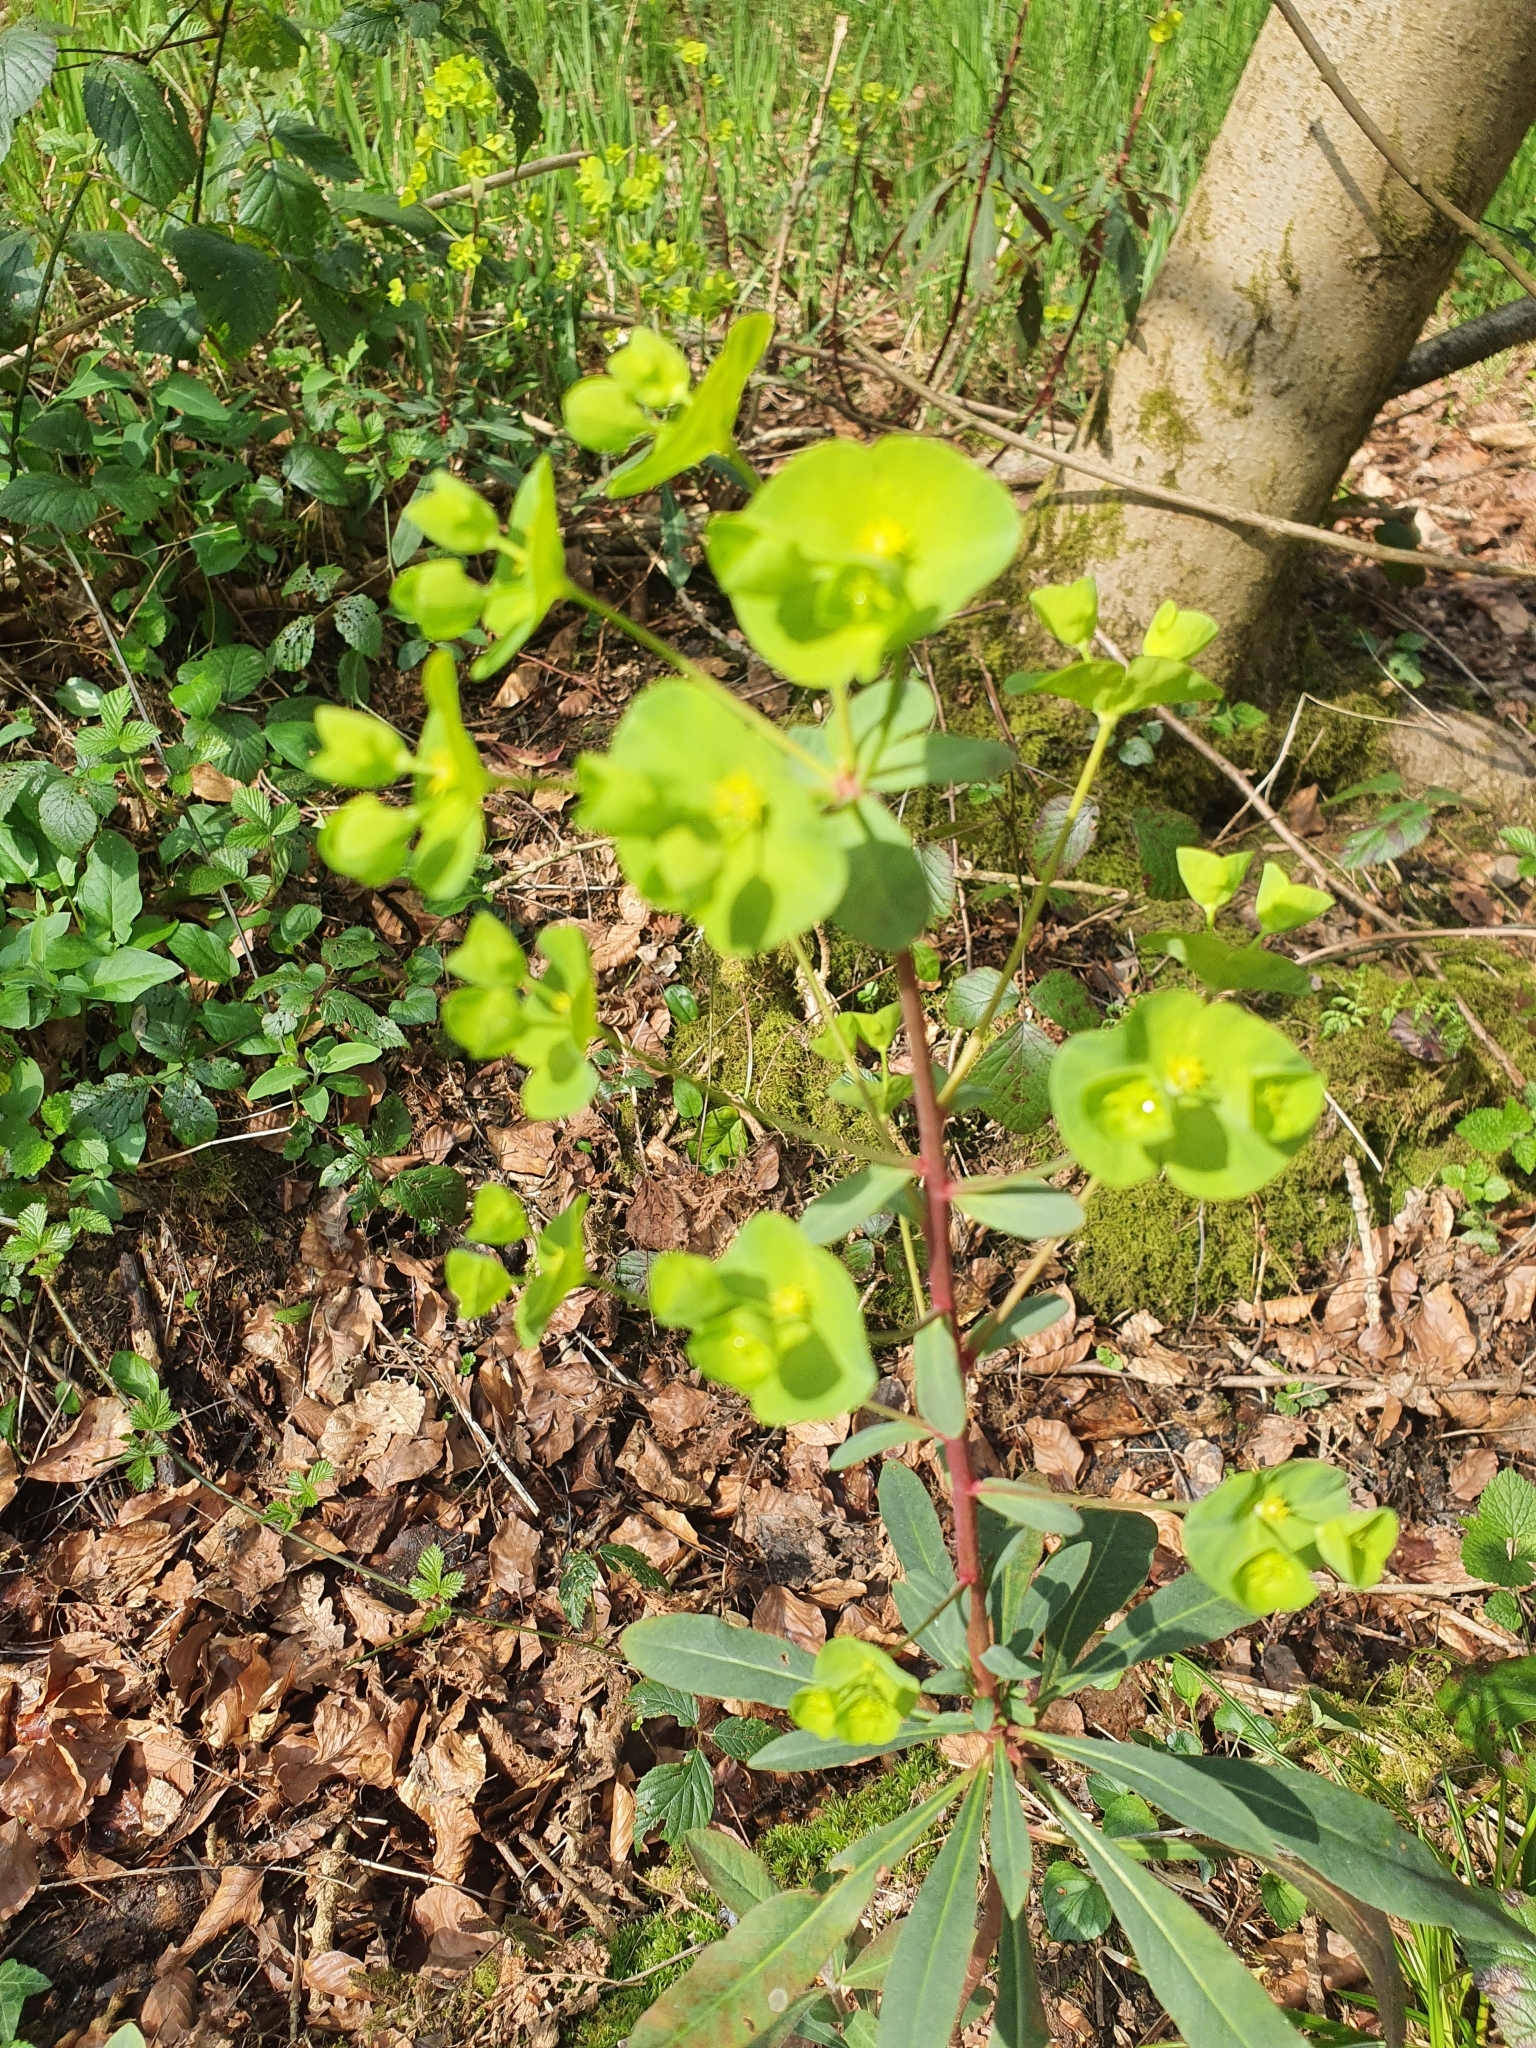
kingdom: Plantae
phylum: Tracheophyta
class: Magnoliopsida
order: Malpighiales
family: Euphorbiaceae
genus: Euphorbia
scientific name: Euphorbia amygdaloides
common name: Wood spurge
